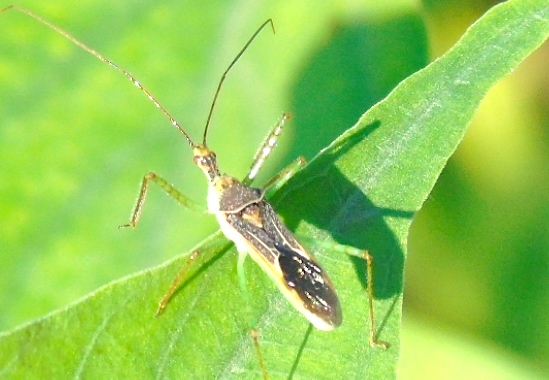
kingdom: Animalia
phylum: Arthropoda
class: Insecta
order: Hemiptera
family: Reduviidae
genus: Zelus
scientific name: Zelus
